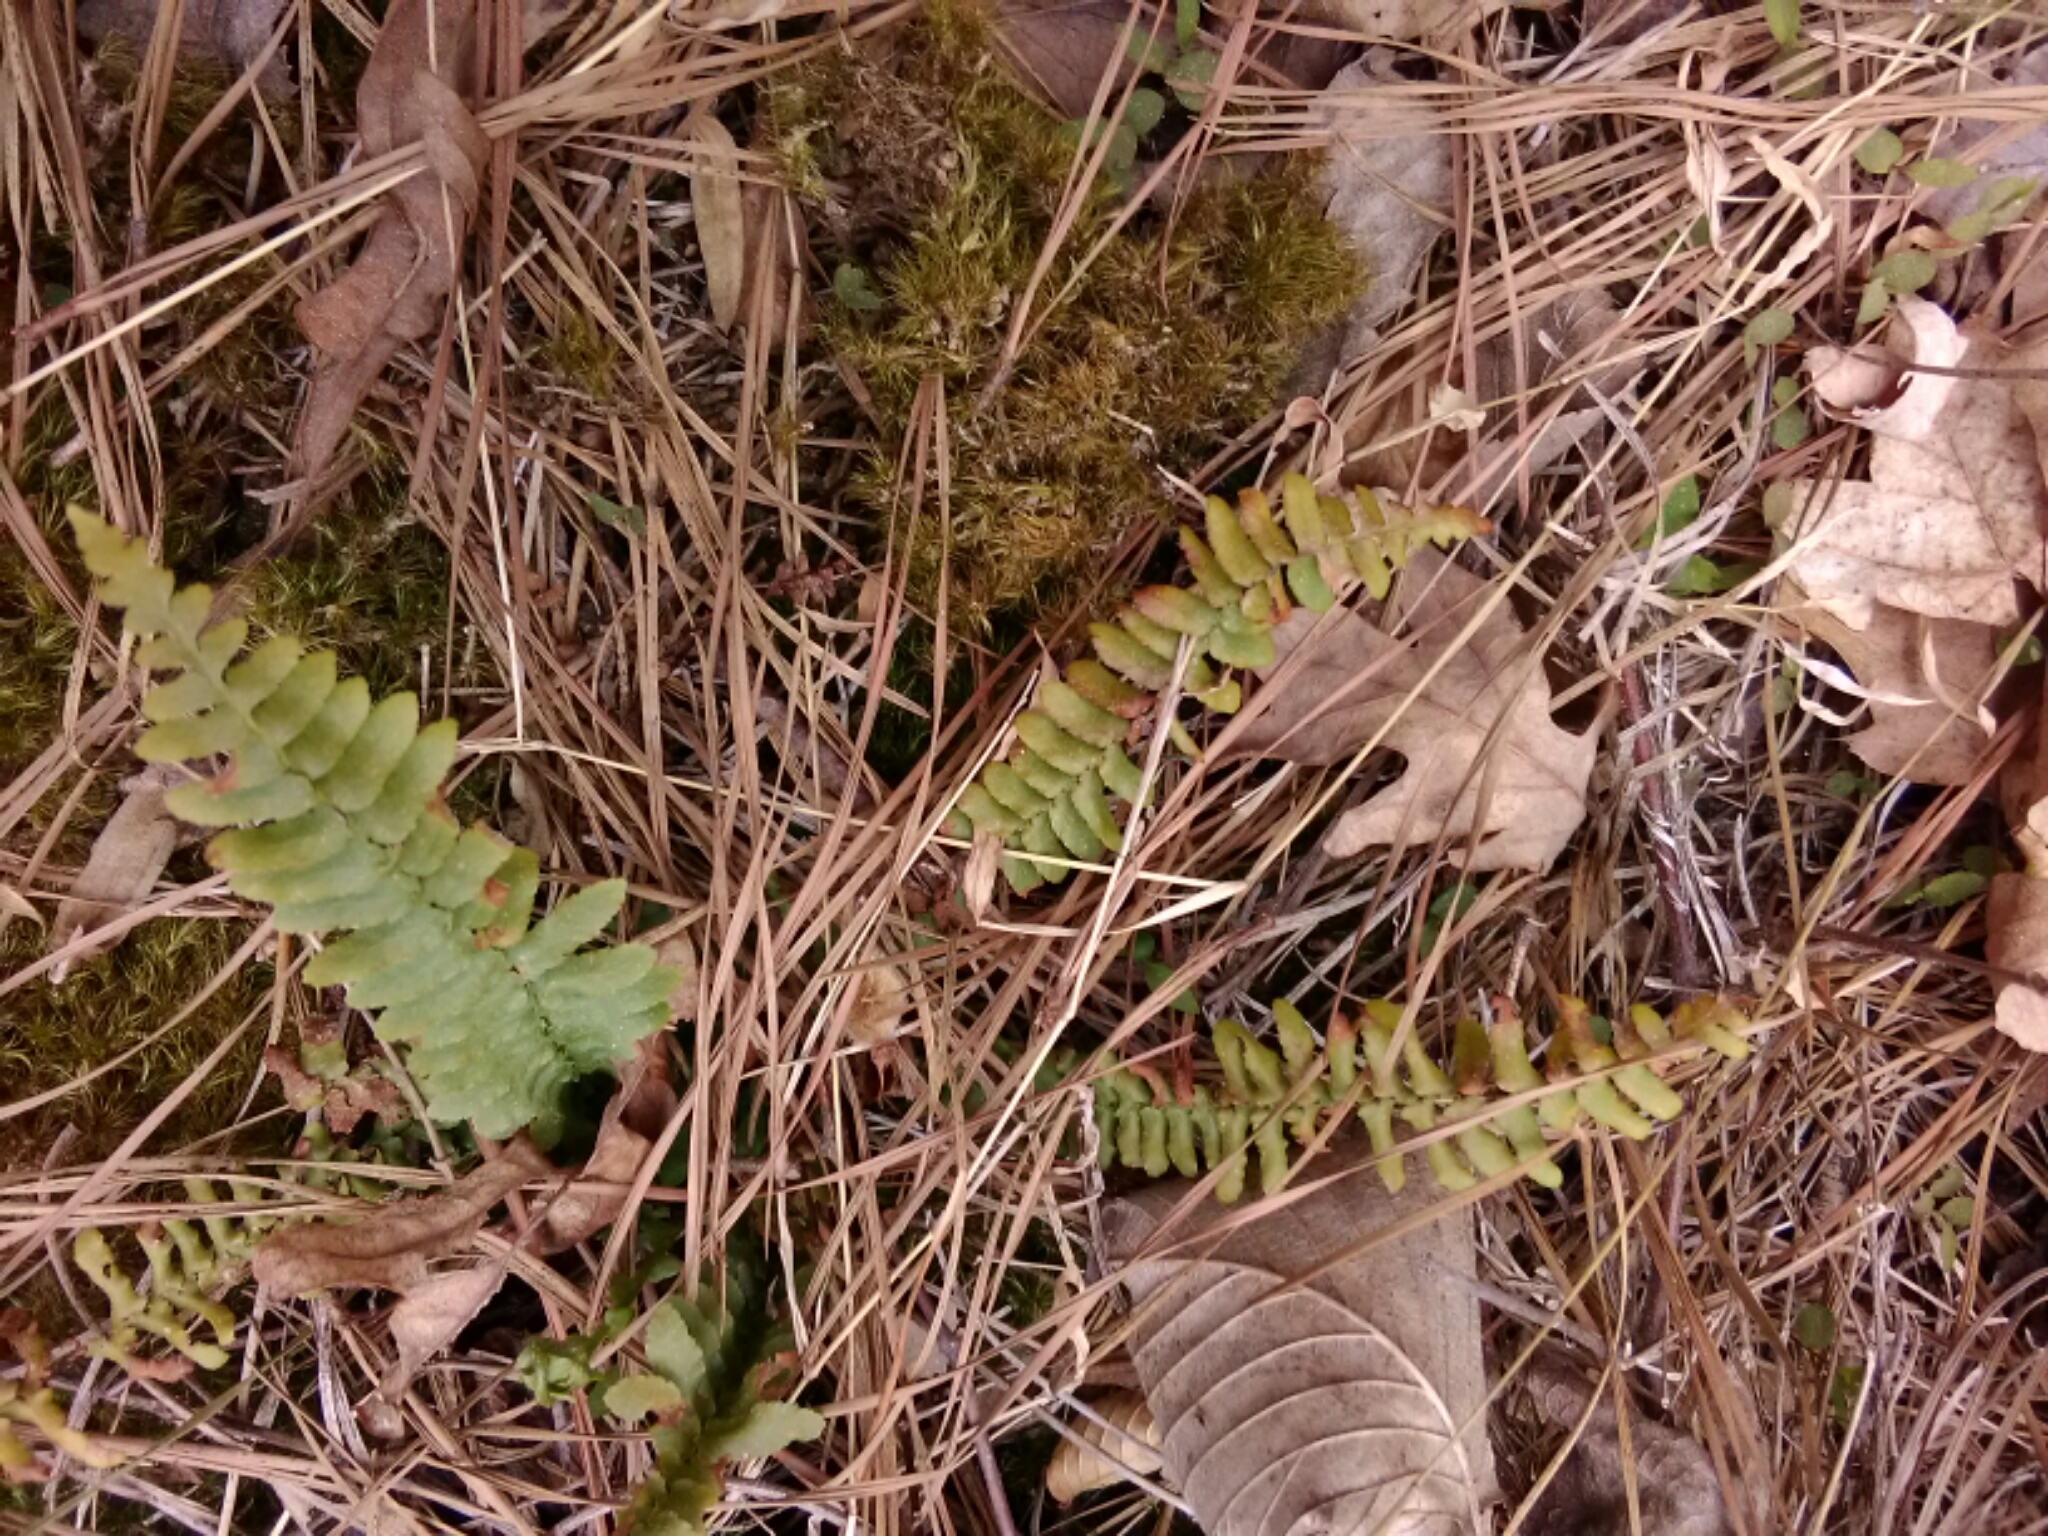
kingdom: Plantae
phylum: Tracheophyta
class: Polypodiopsida
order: Polypodiales
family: Aspleniaceae
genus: Asplenium
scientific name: Asplenium platyneuron
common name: Ebony spleenwort
